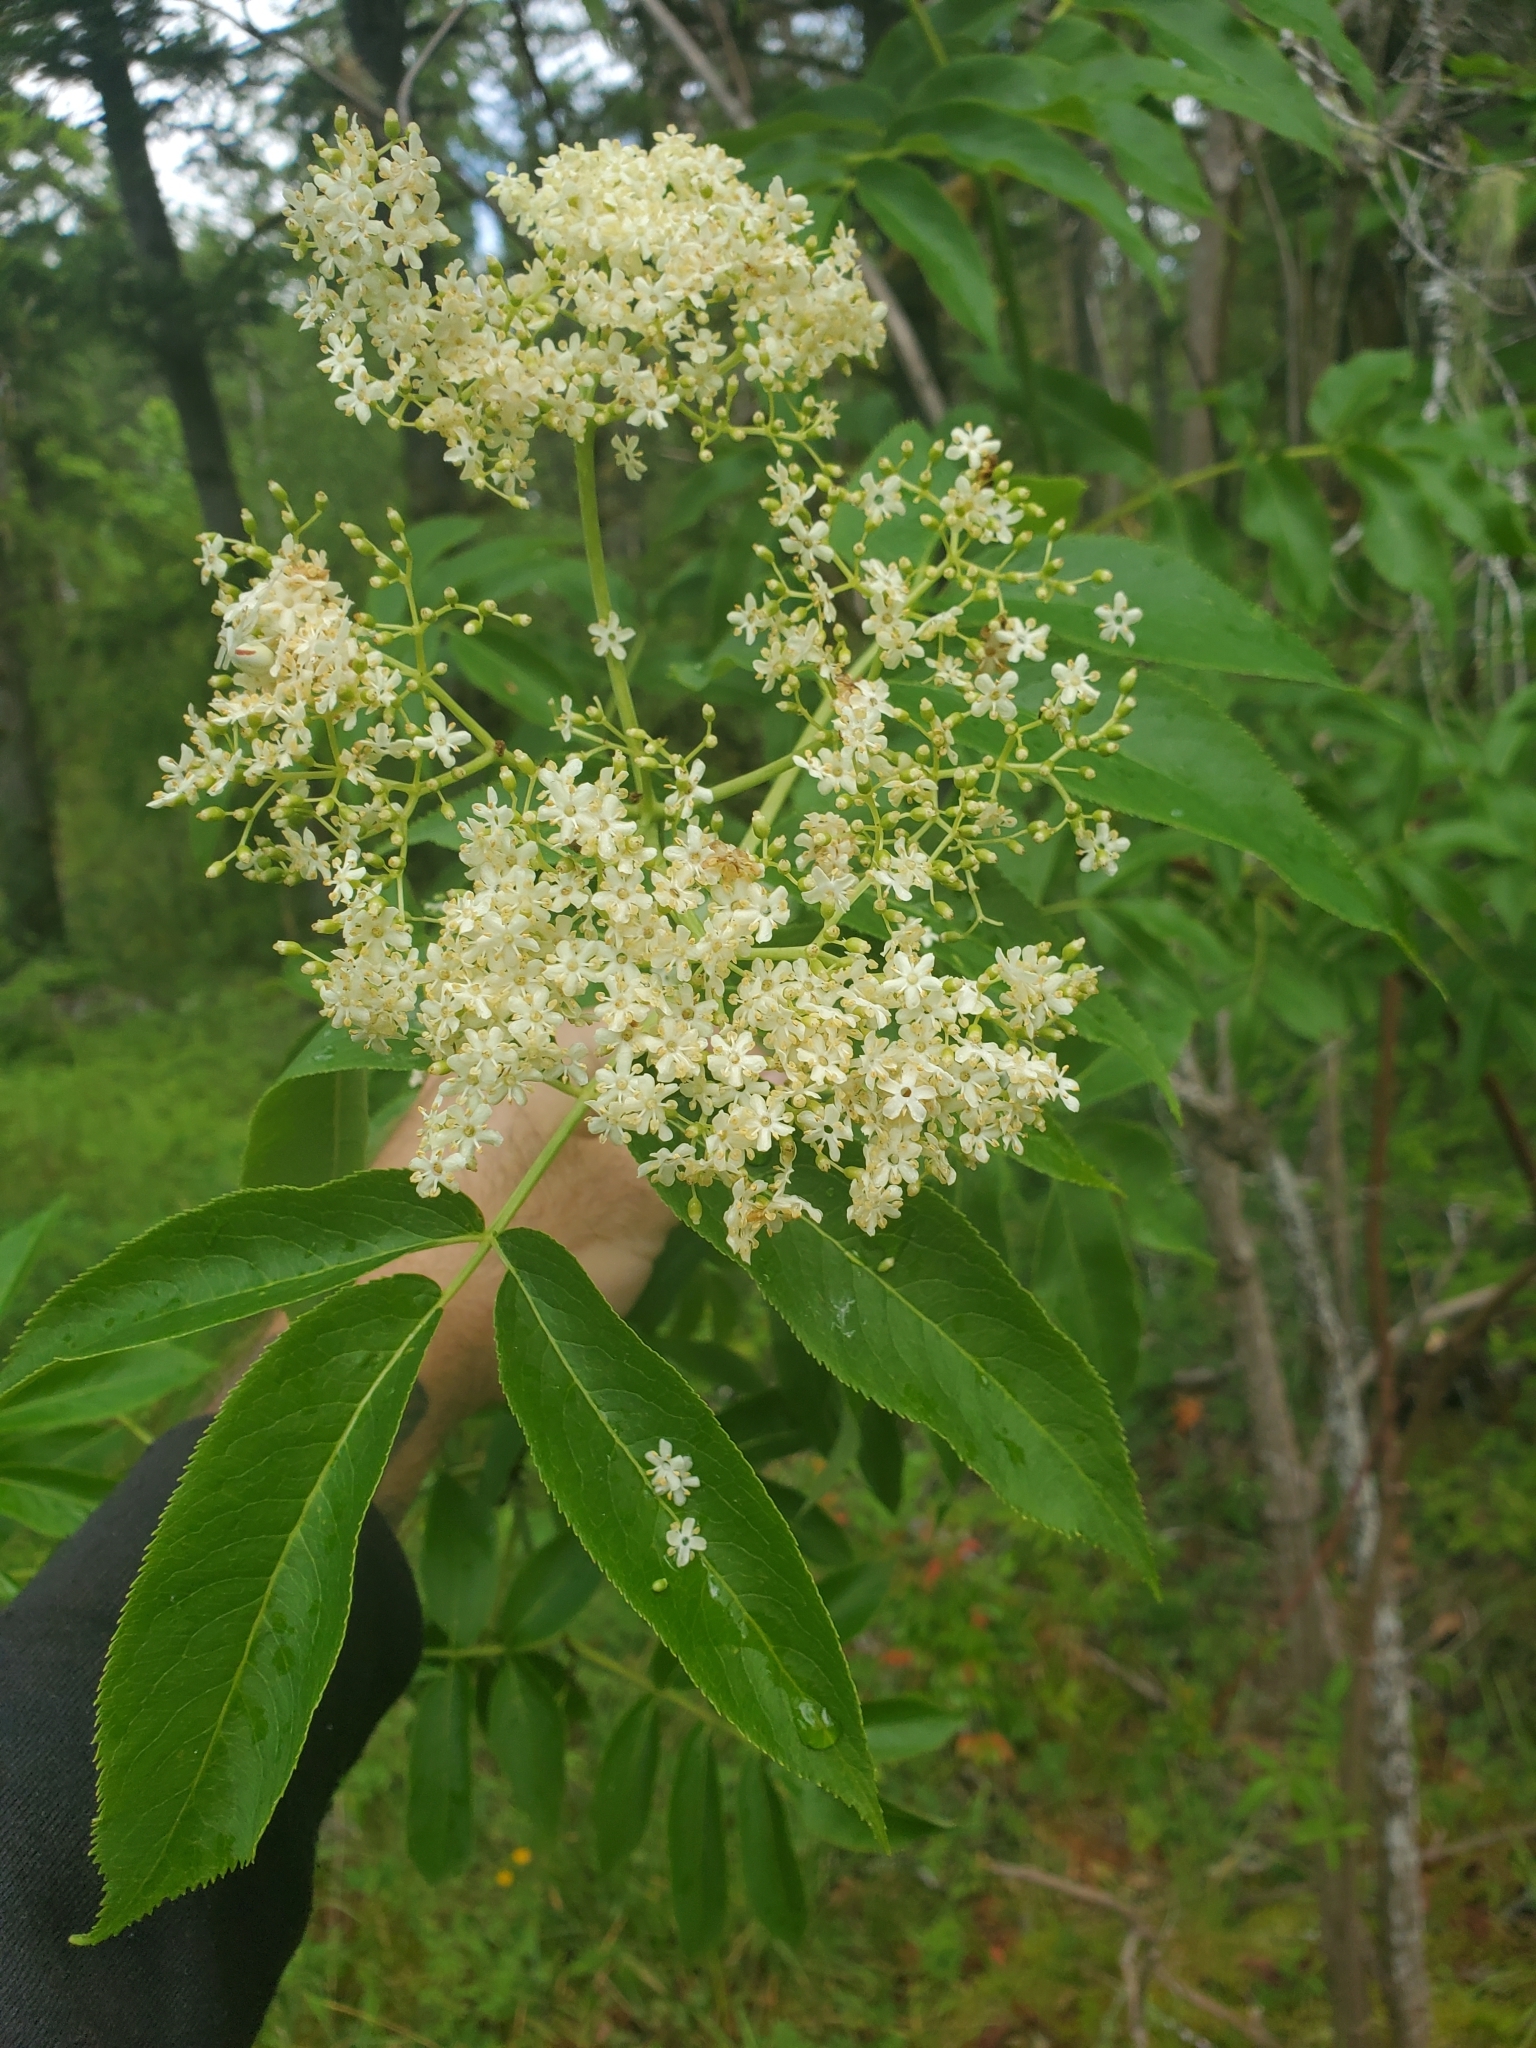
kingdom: Plantae
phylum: Tracheophyta
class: Magnoliopsida
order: Dipsacales
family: Viburnaceae
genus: Sambucus
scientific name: Sambucus racemosa
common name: Red-berried elder
